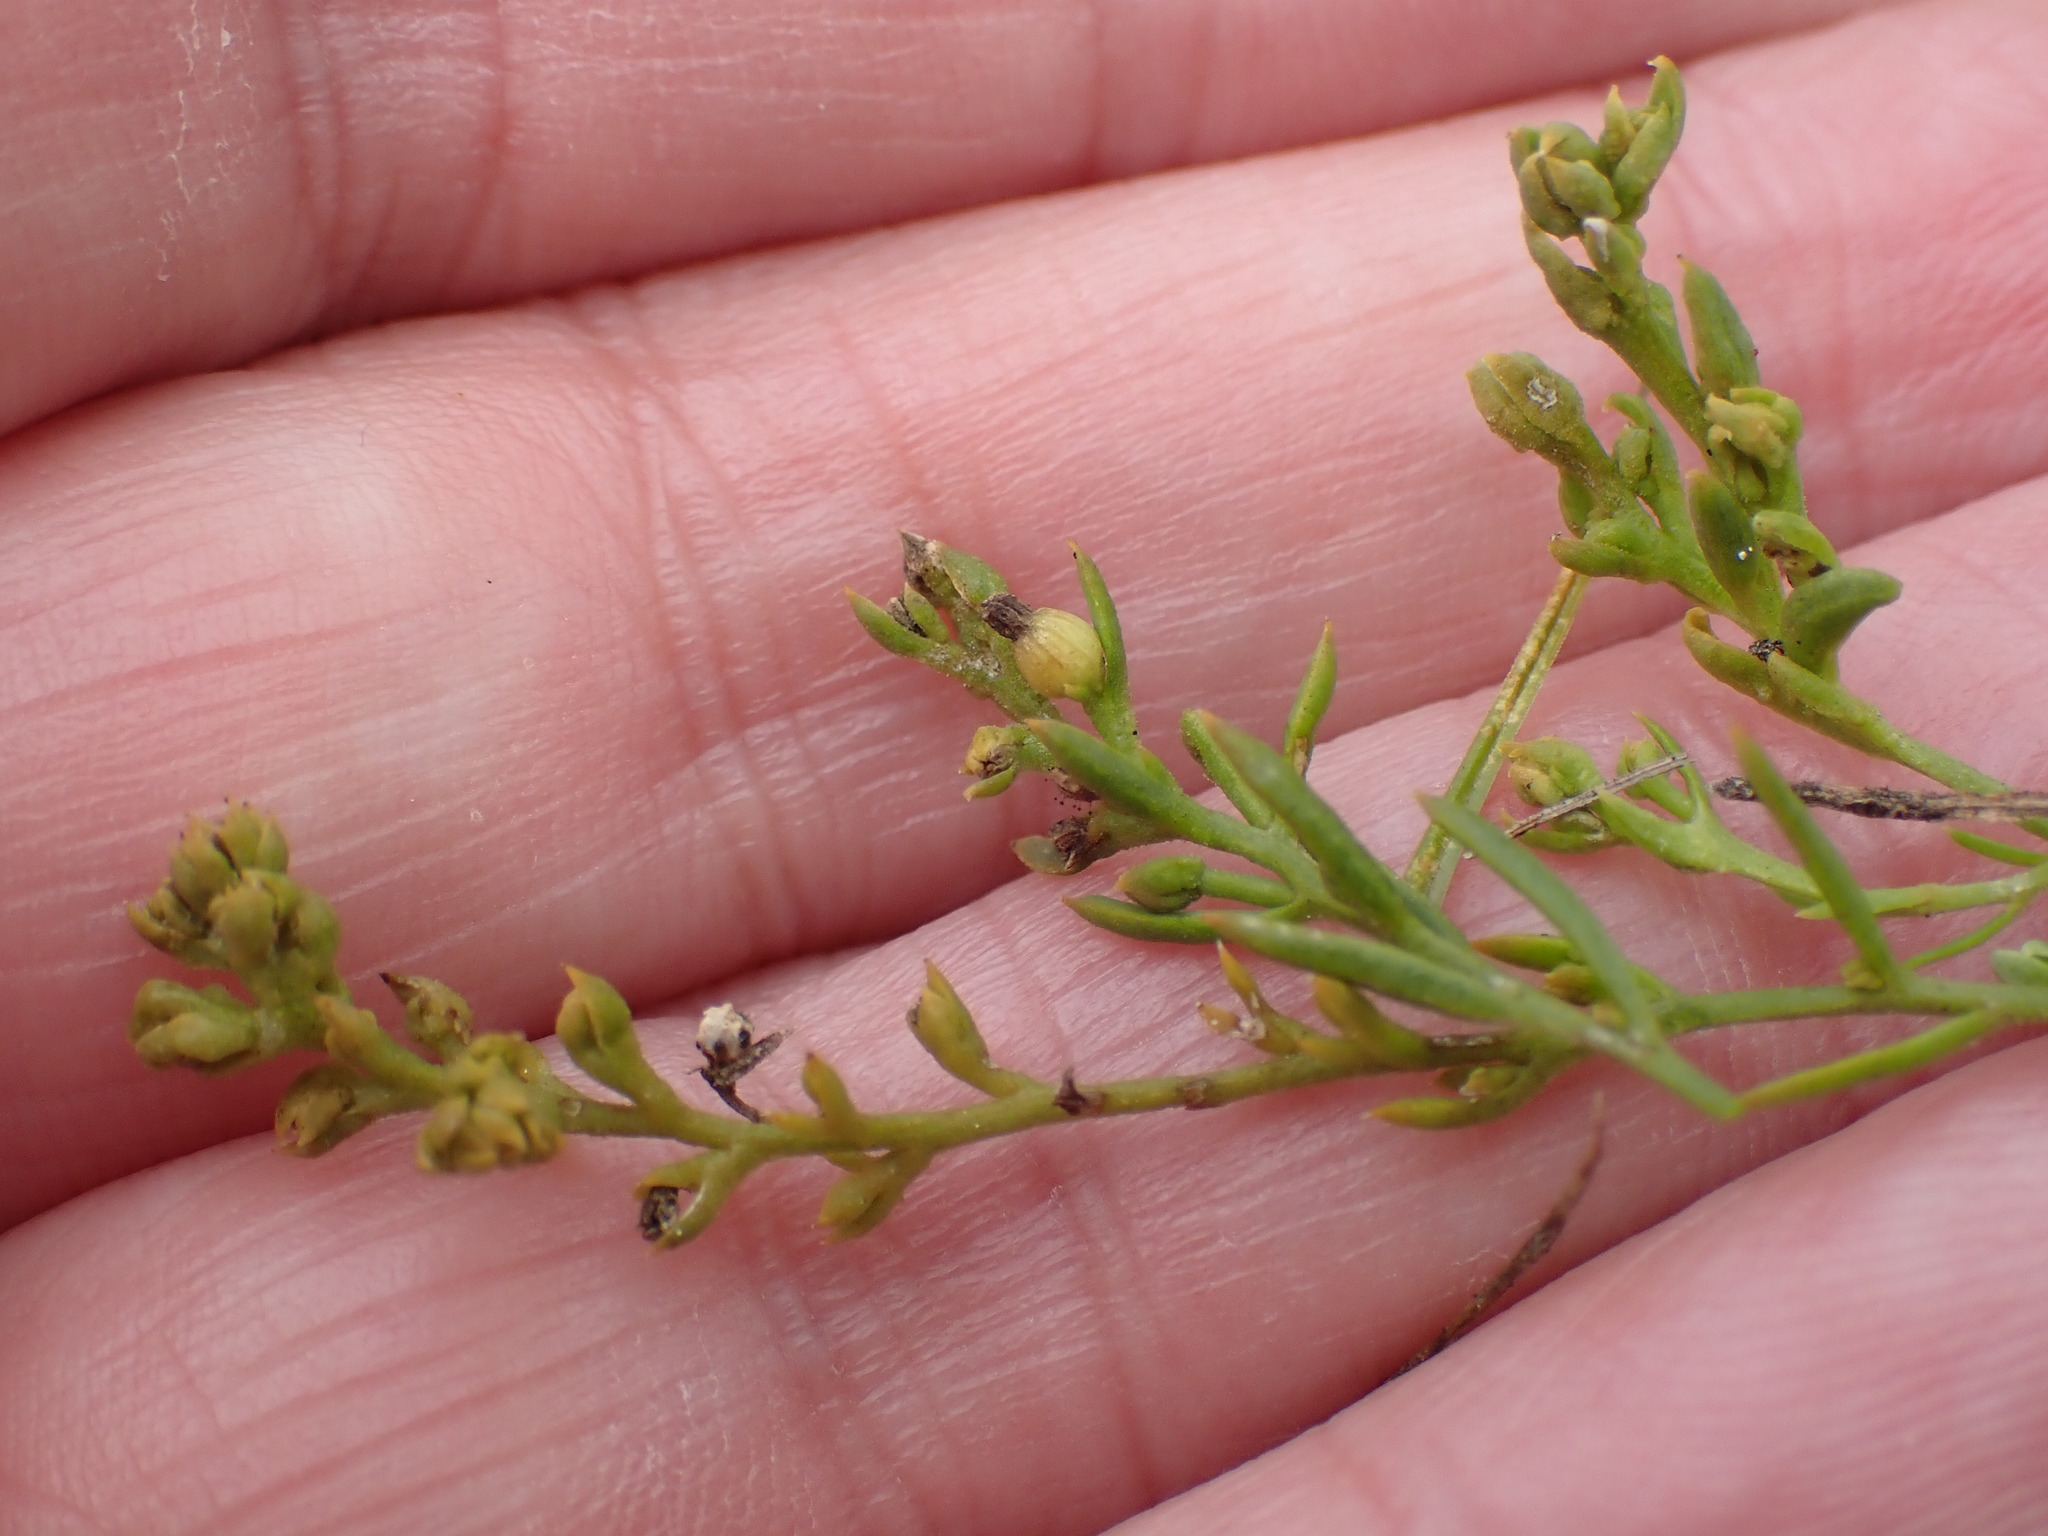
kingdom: Plantae
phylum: Tracheophyta
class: Magnoliopsida
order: Santalales
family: Thesiaceae
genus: Thesium
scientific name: Thesium humifusum
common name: Bastard-toadflax
